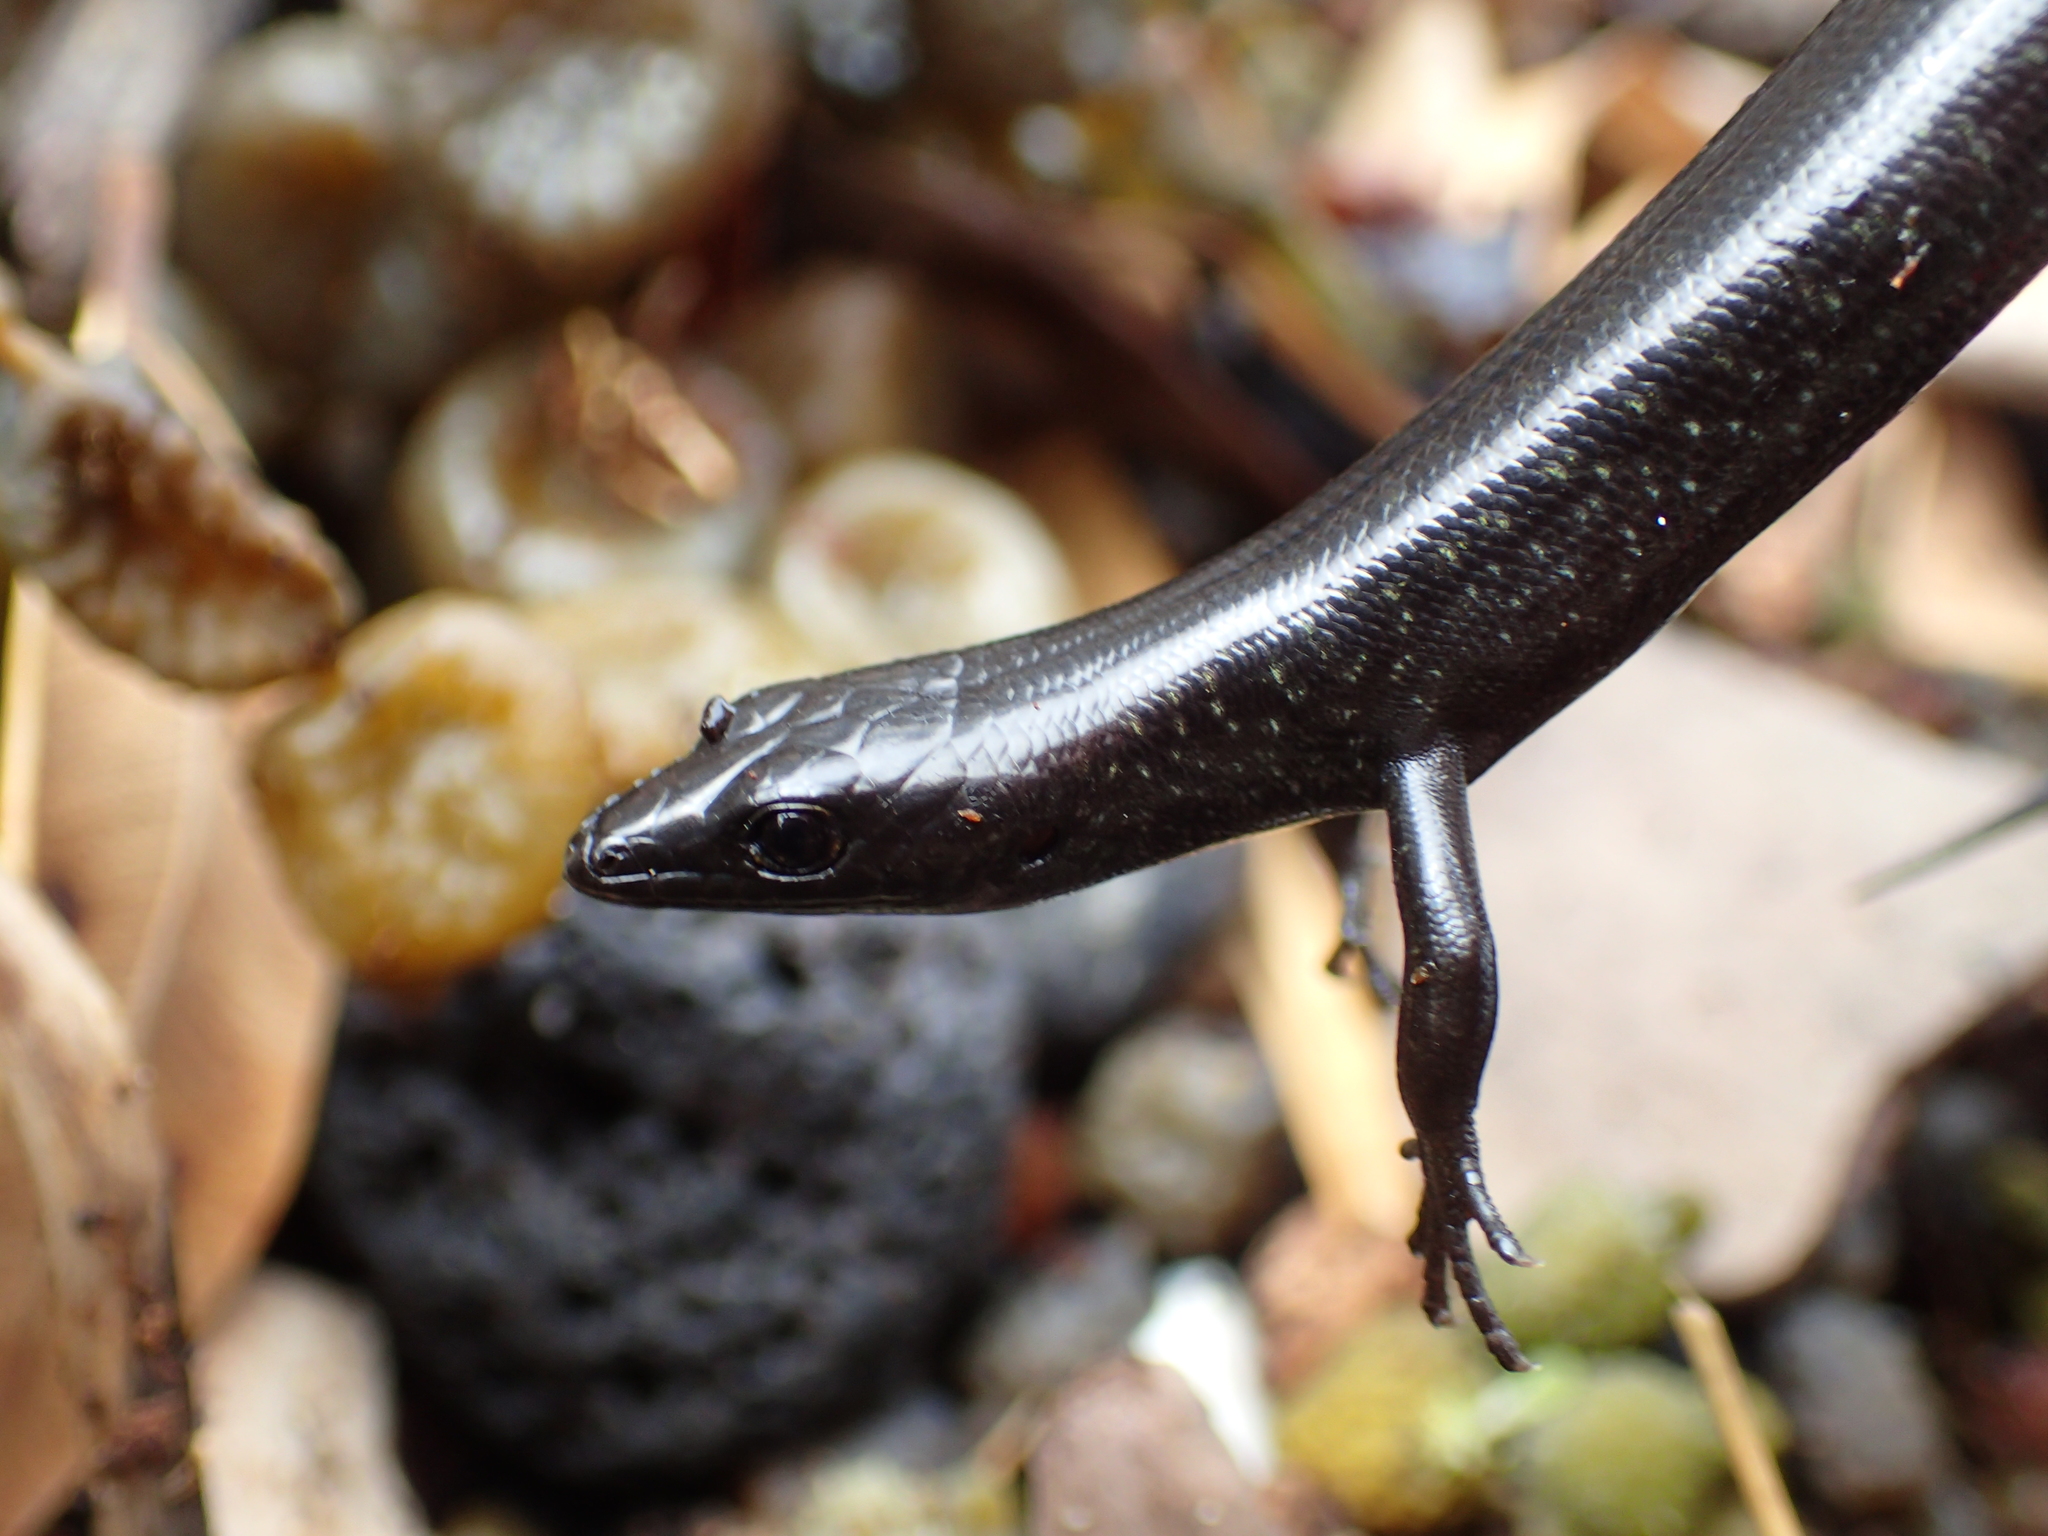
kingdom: Animalia
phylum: Chordata
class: Squamata
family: Scincidae
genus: Oligosoma
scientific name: Oligosoma suteri
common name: Egg-laying skink
